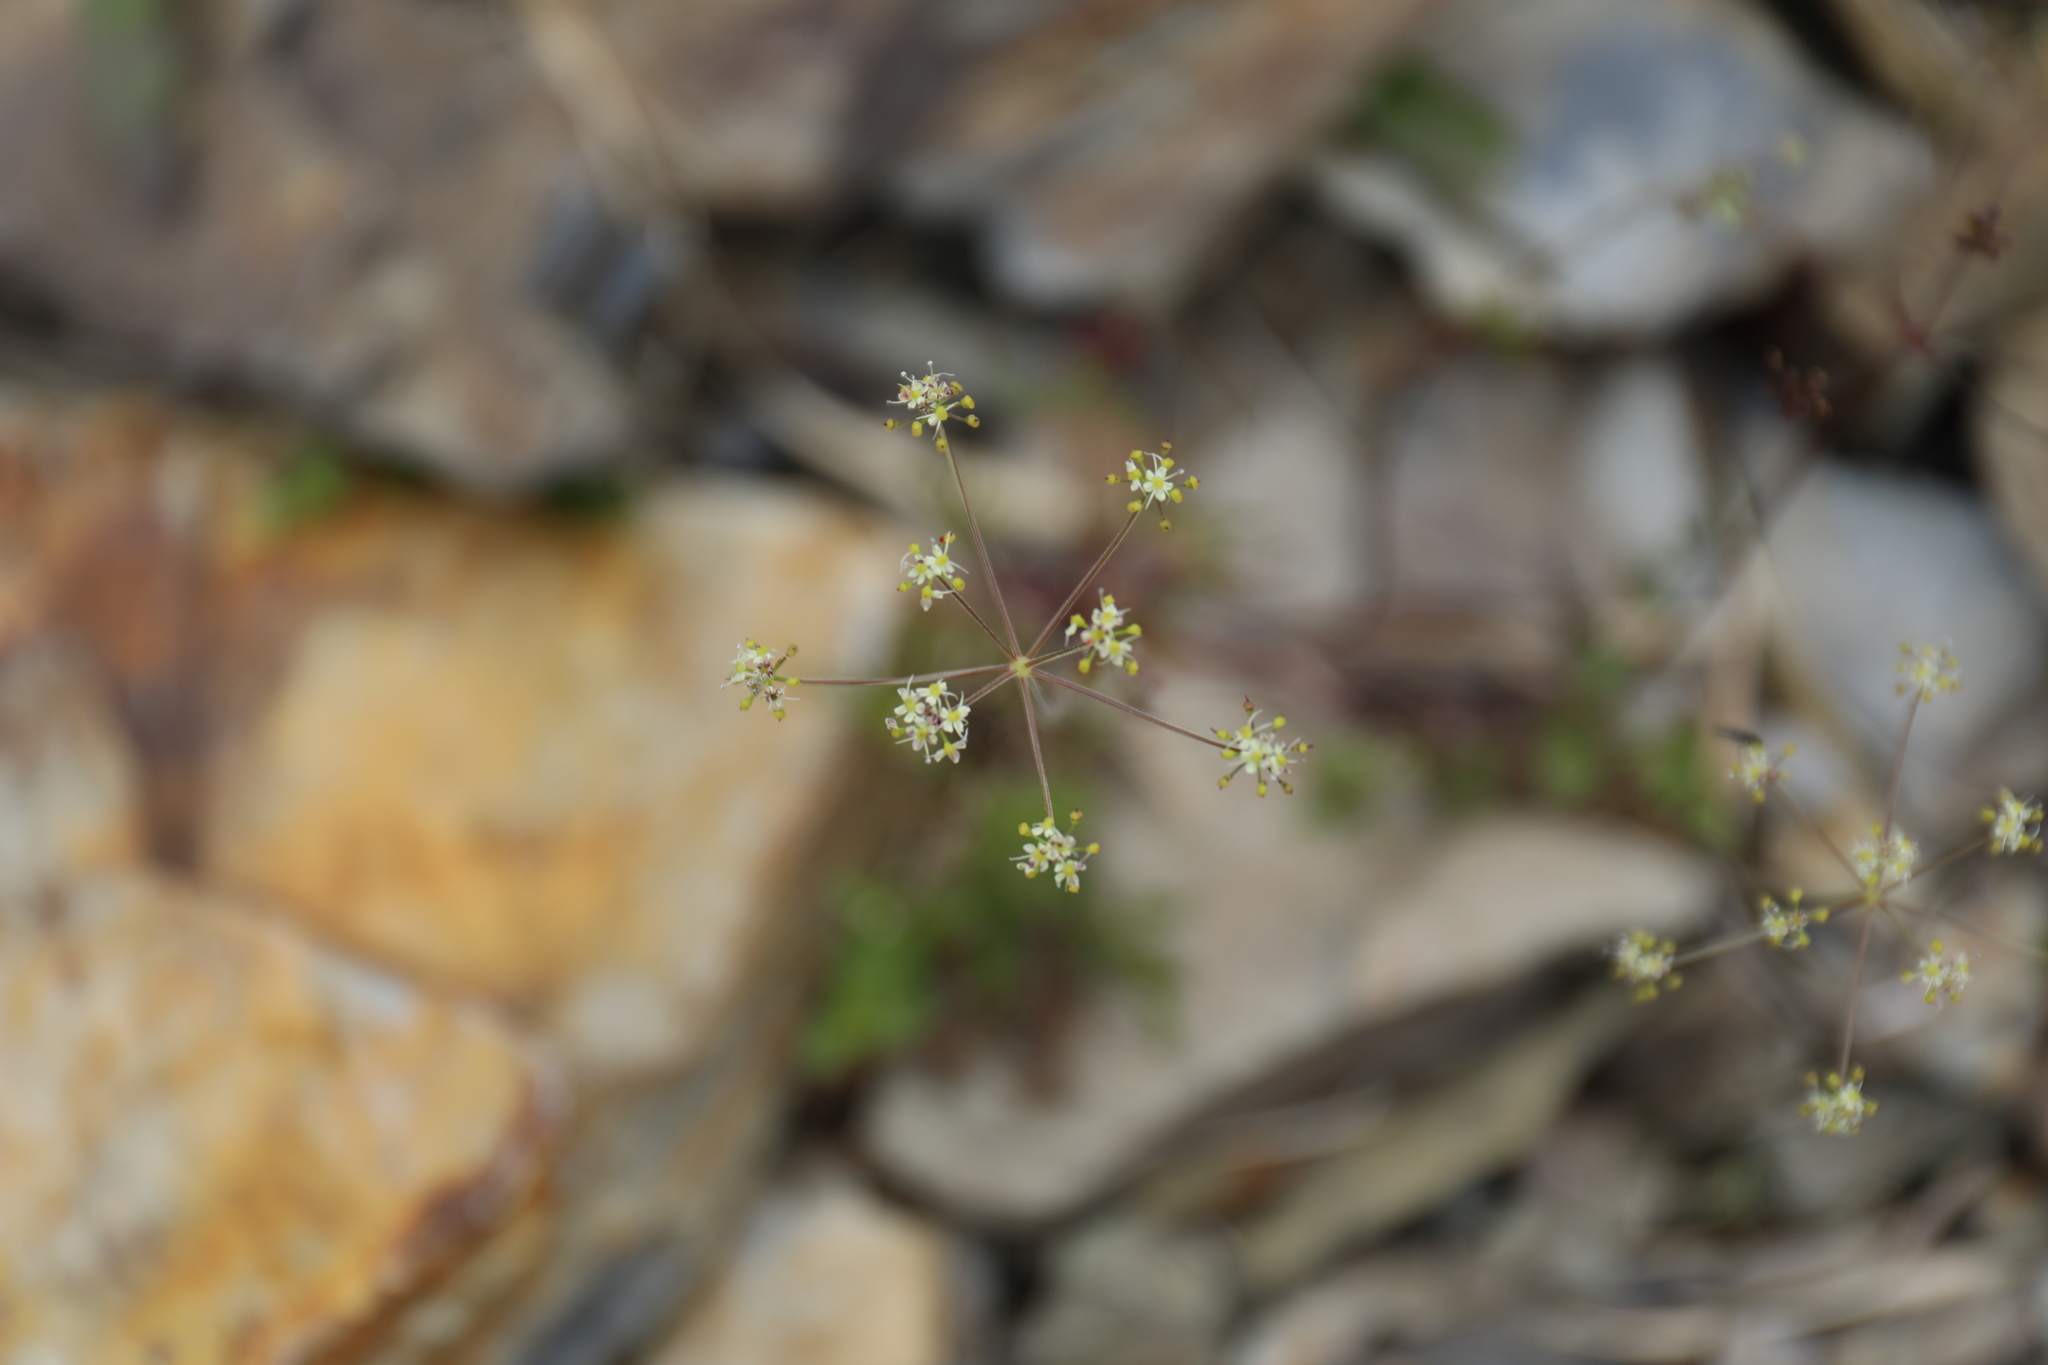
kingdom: Plantae
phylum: Tracheophyta
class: Magnoliopsida
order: Apiales
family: Apiaceae
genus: Pimpinella
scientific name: Pimpinella niitakayamensis
